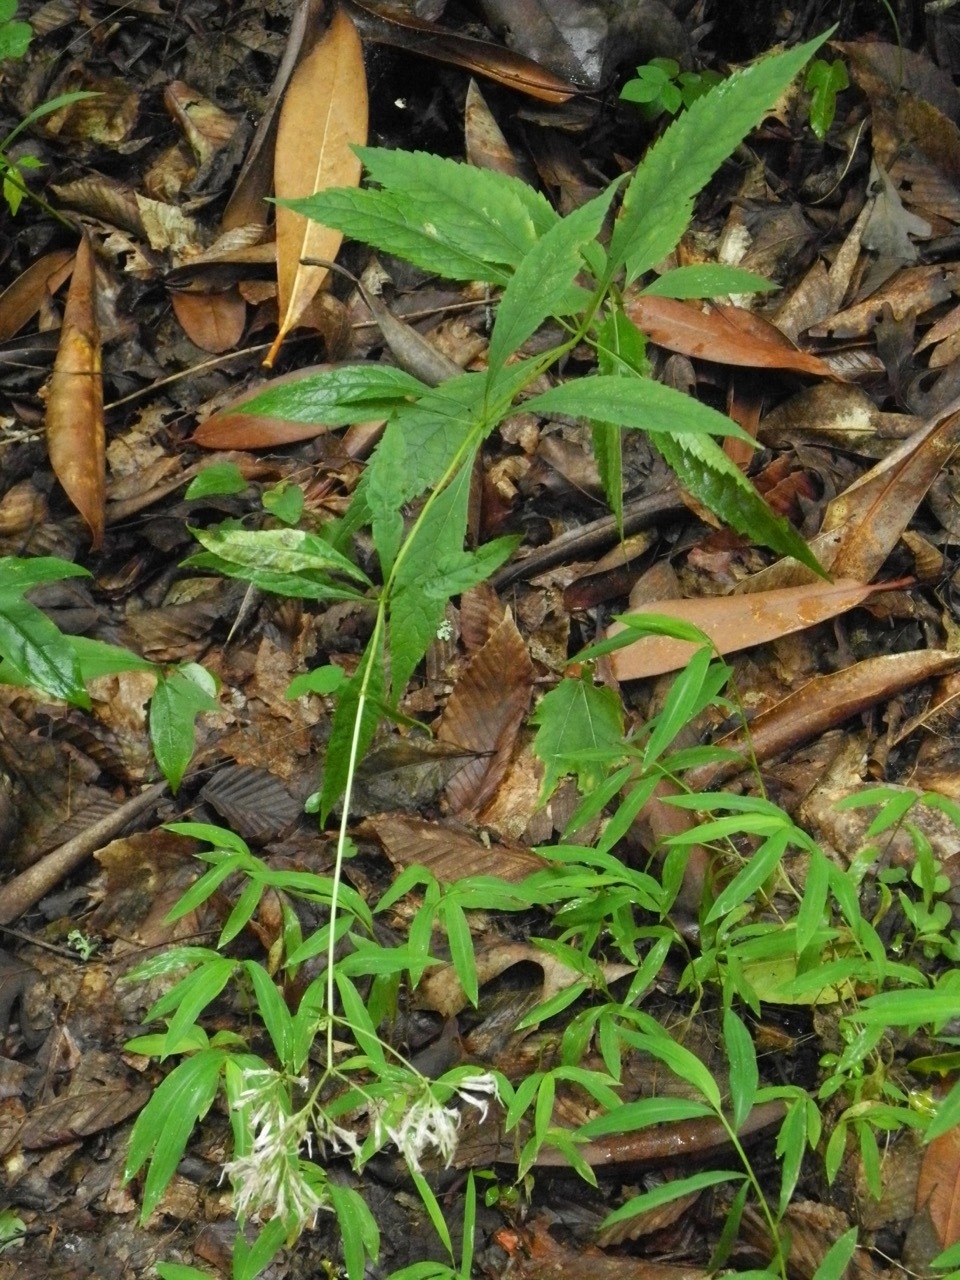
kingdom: Plantae
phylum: Tracheophyta
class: Magnoliopsida
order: Asterales
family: Asteraceae
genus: Eutrochium
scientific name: Eutrochium purpureum
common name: Gravelroot
